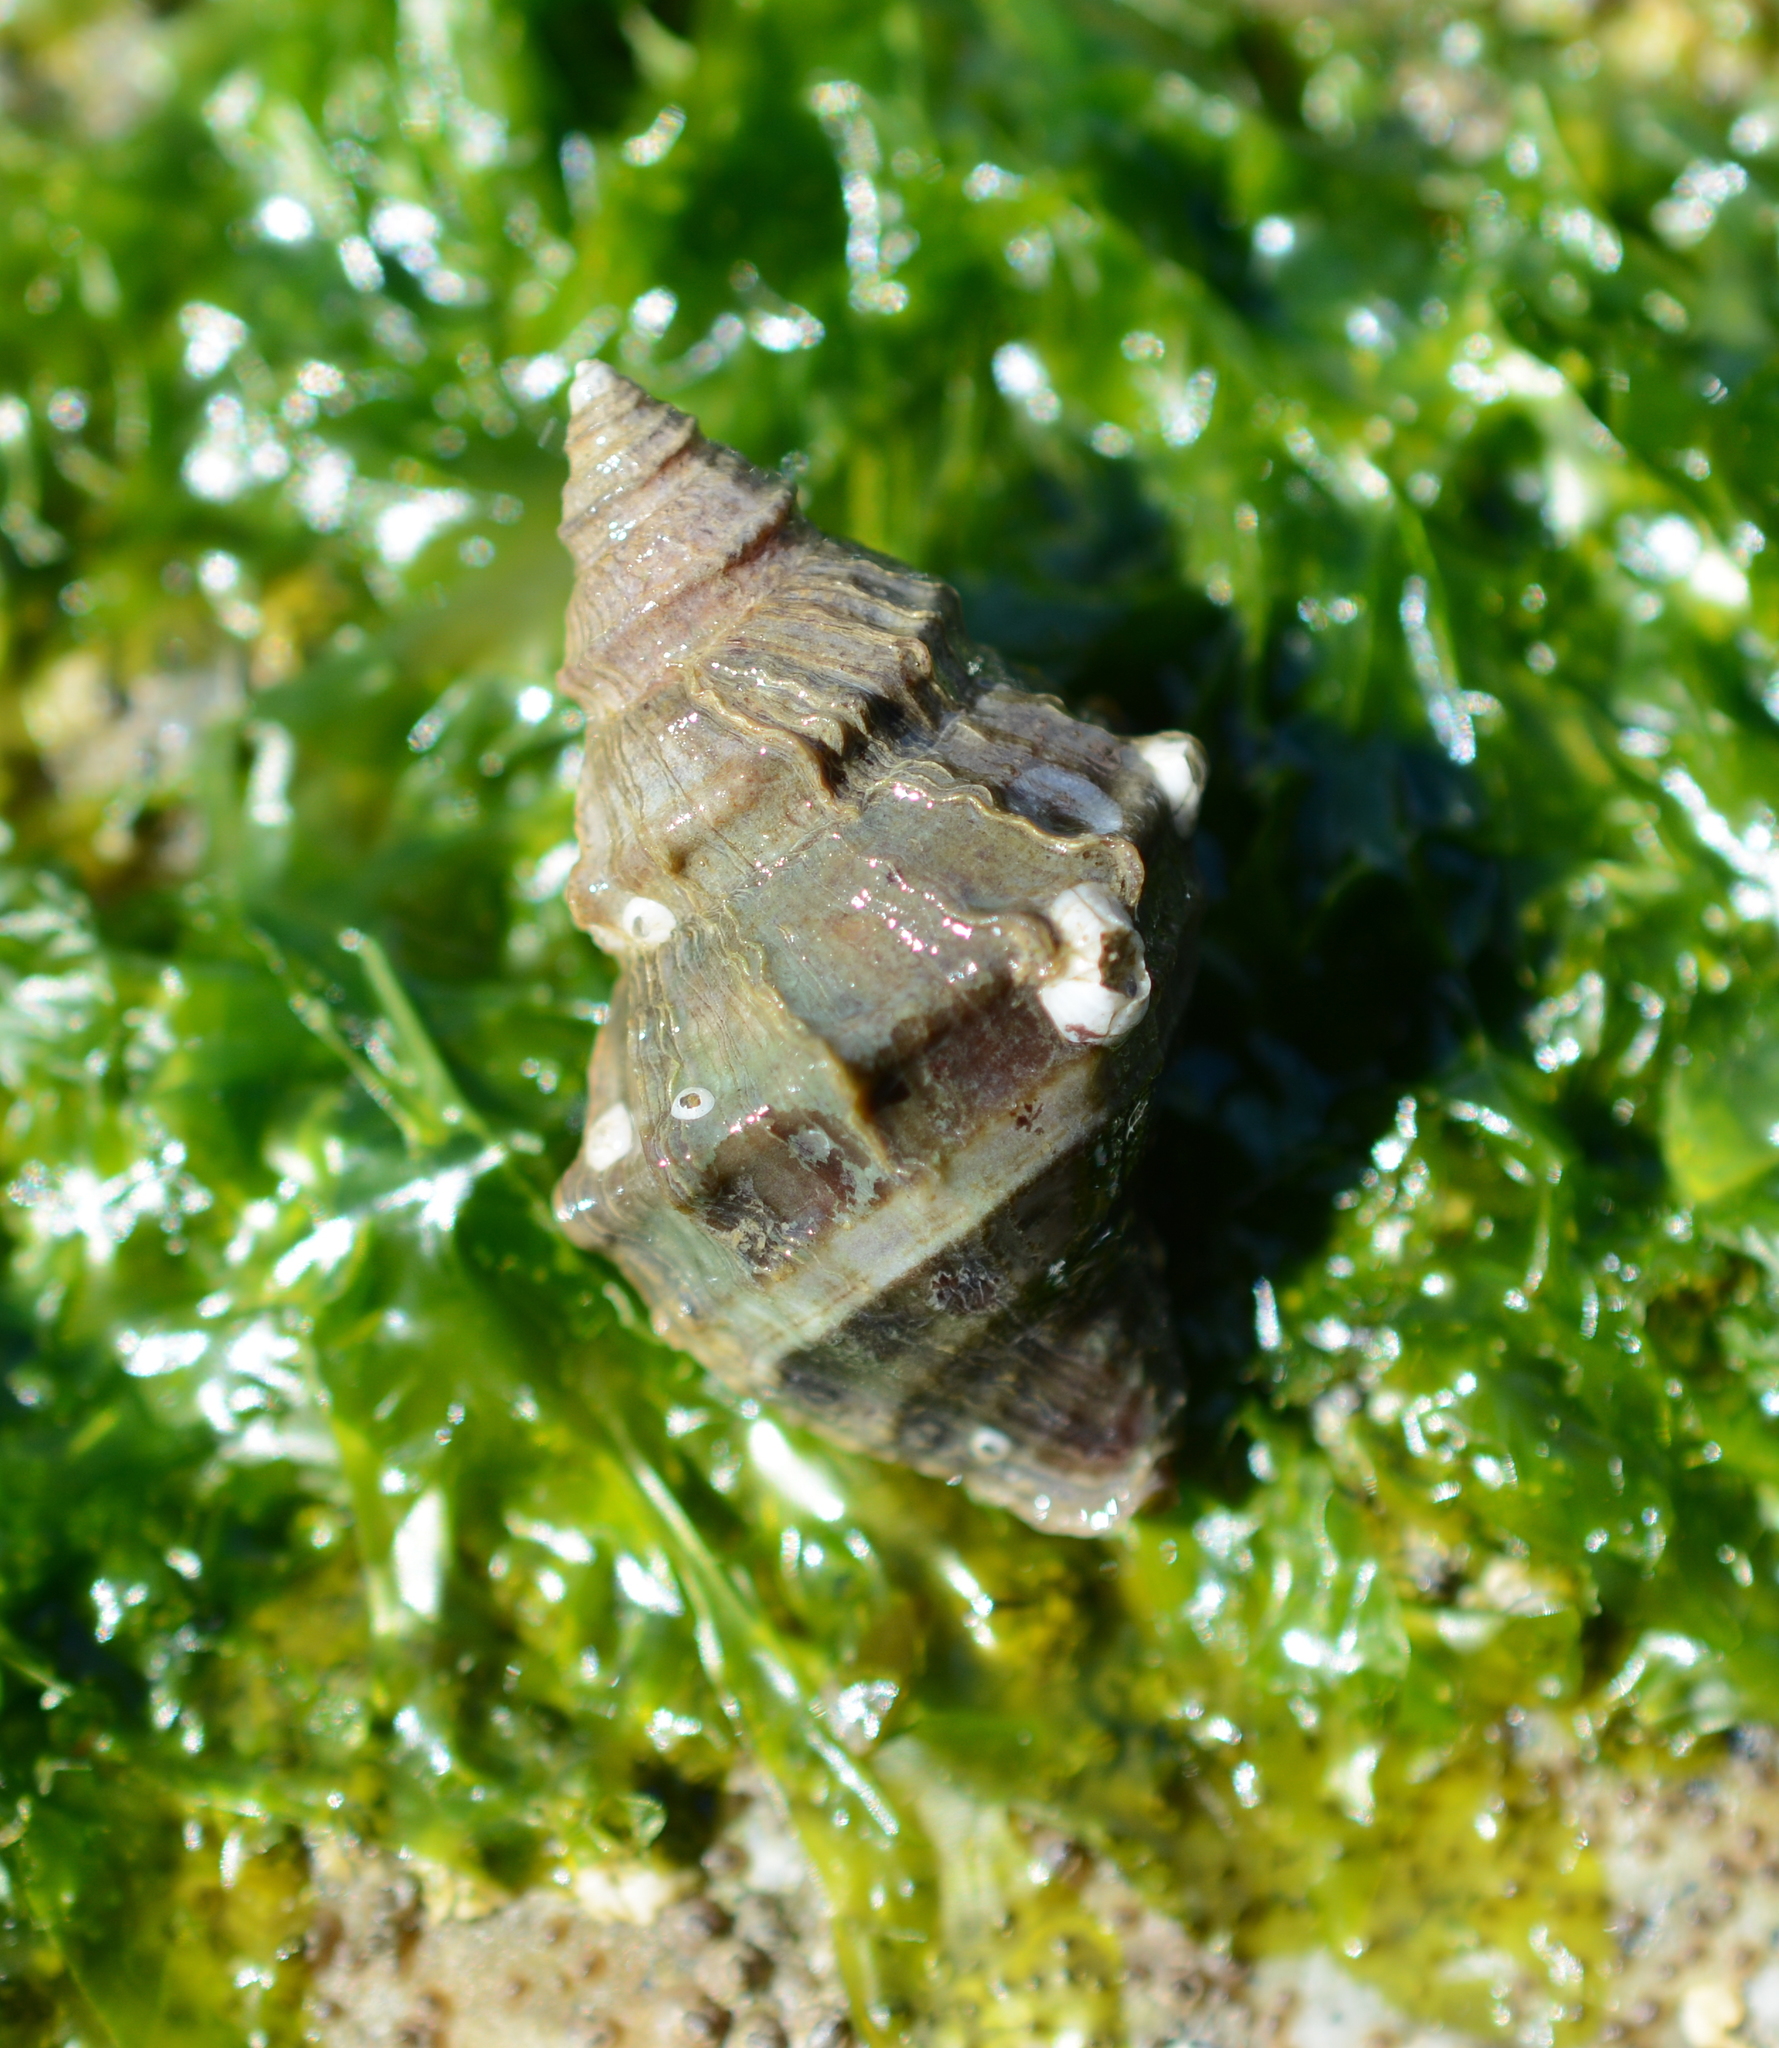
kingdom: Animalia
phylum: Mollusca
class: Gastropoda
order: Neogastropoda
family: Muricidae
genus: Nucella
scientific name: Nucella lamellosa
